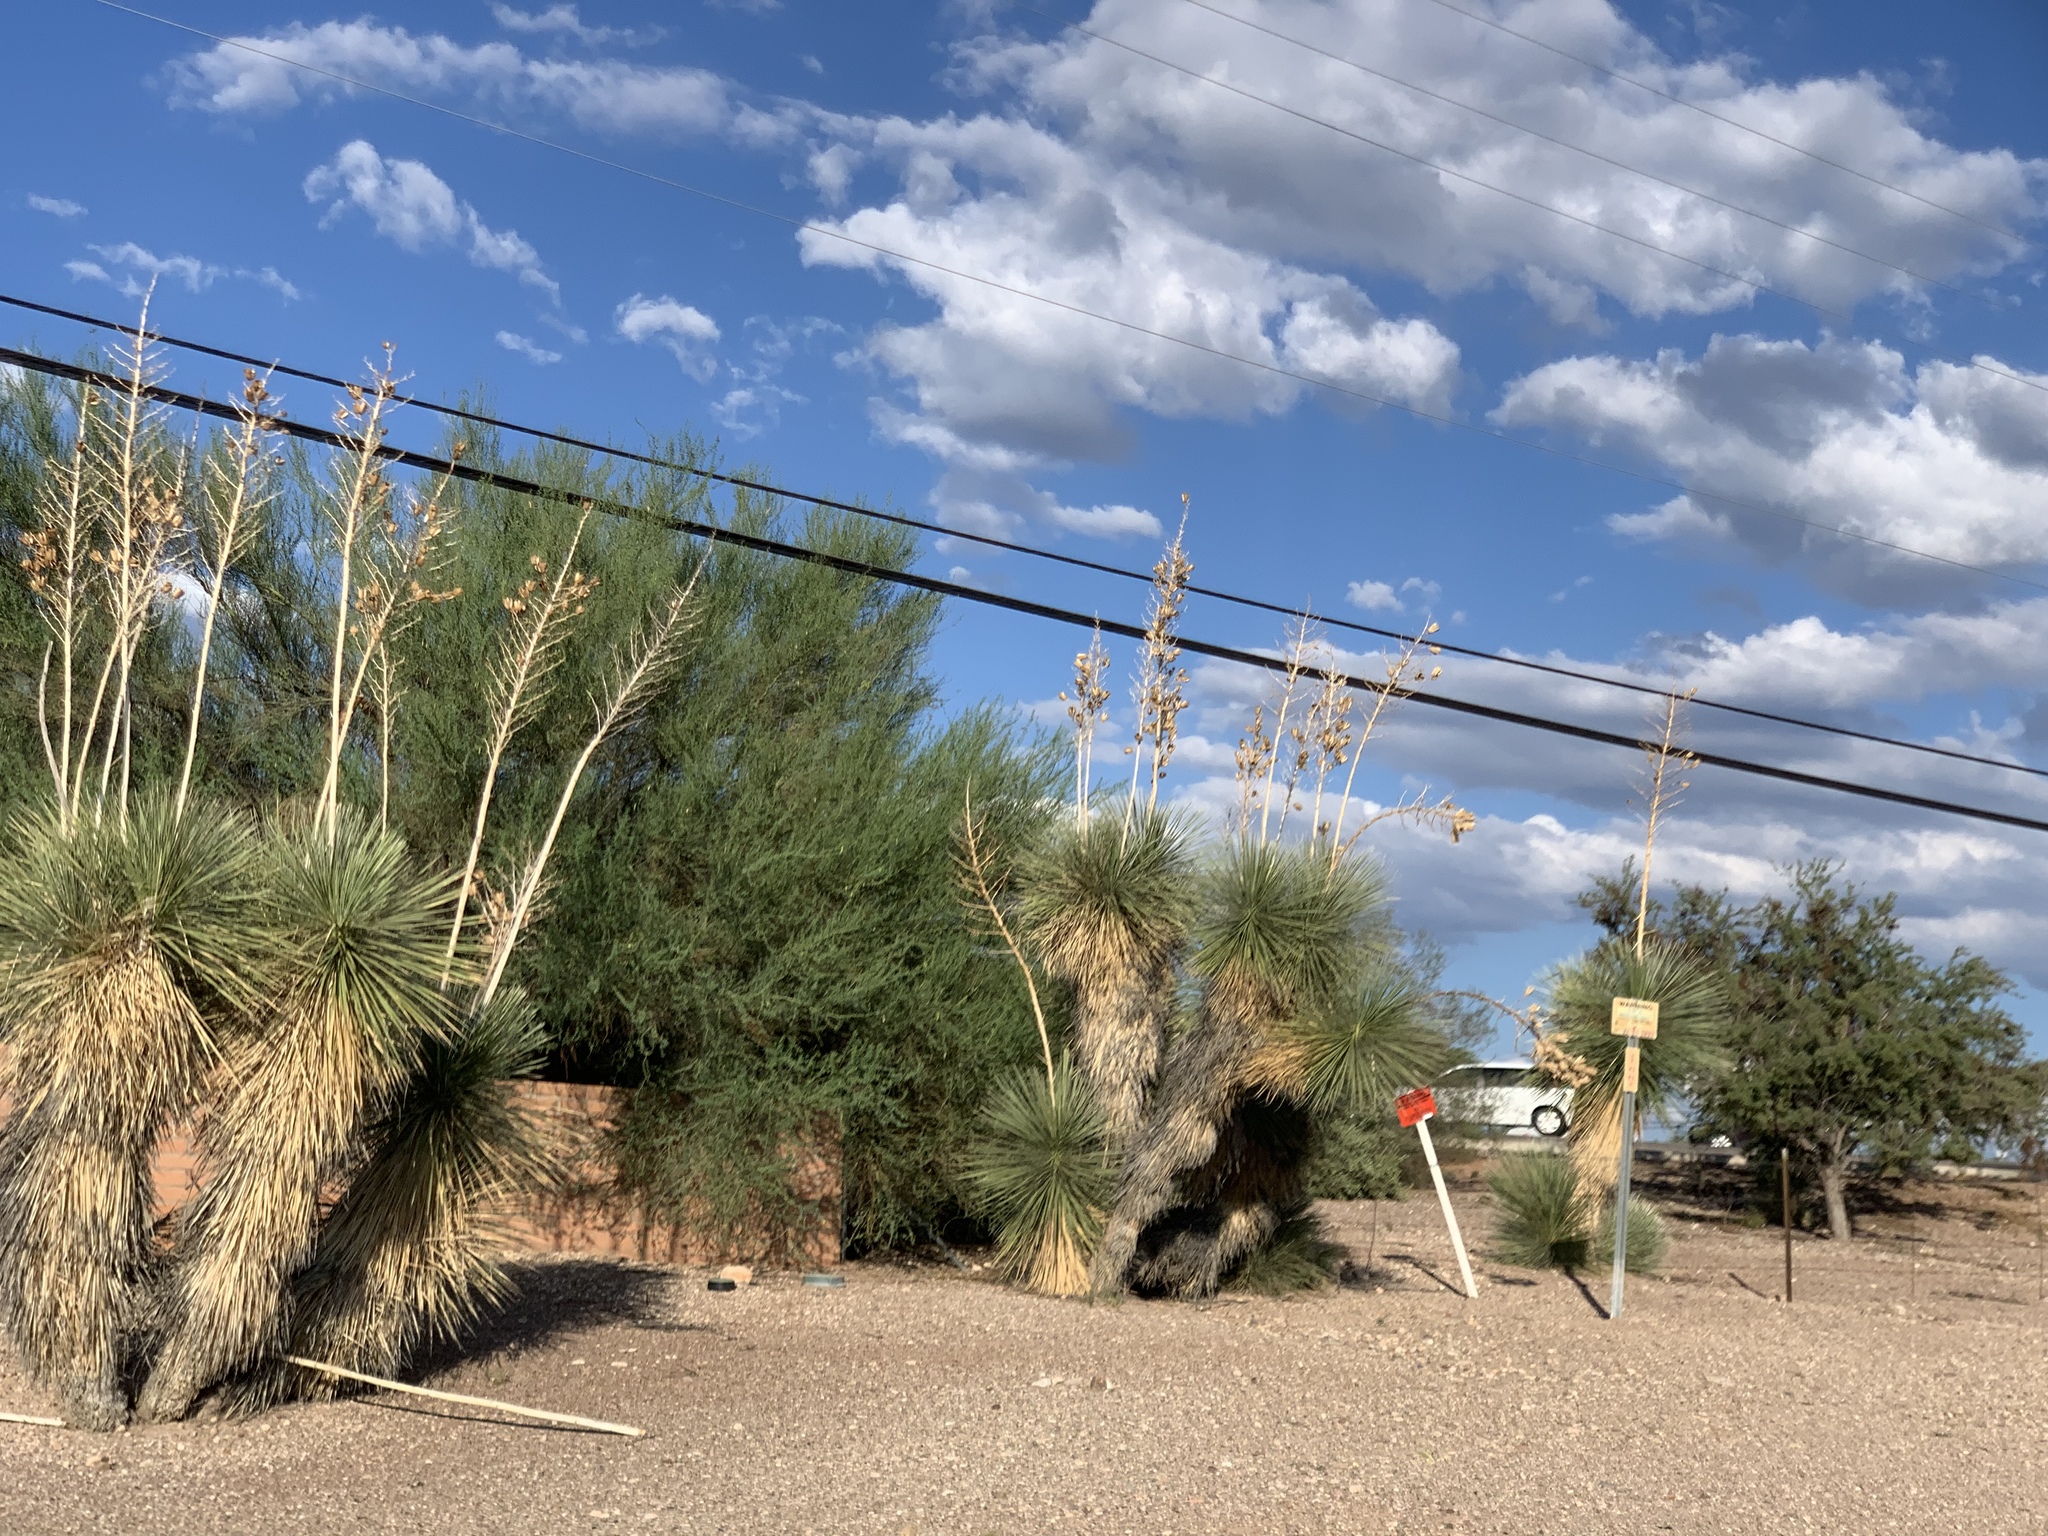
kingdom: Plantae
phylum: Tracheophyta
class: Liliopsida
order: Asparagales
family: Asparagaceae
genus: Yucca
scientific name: Yucca elata
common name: Palmella
